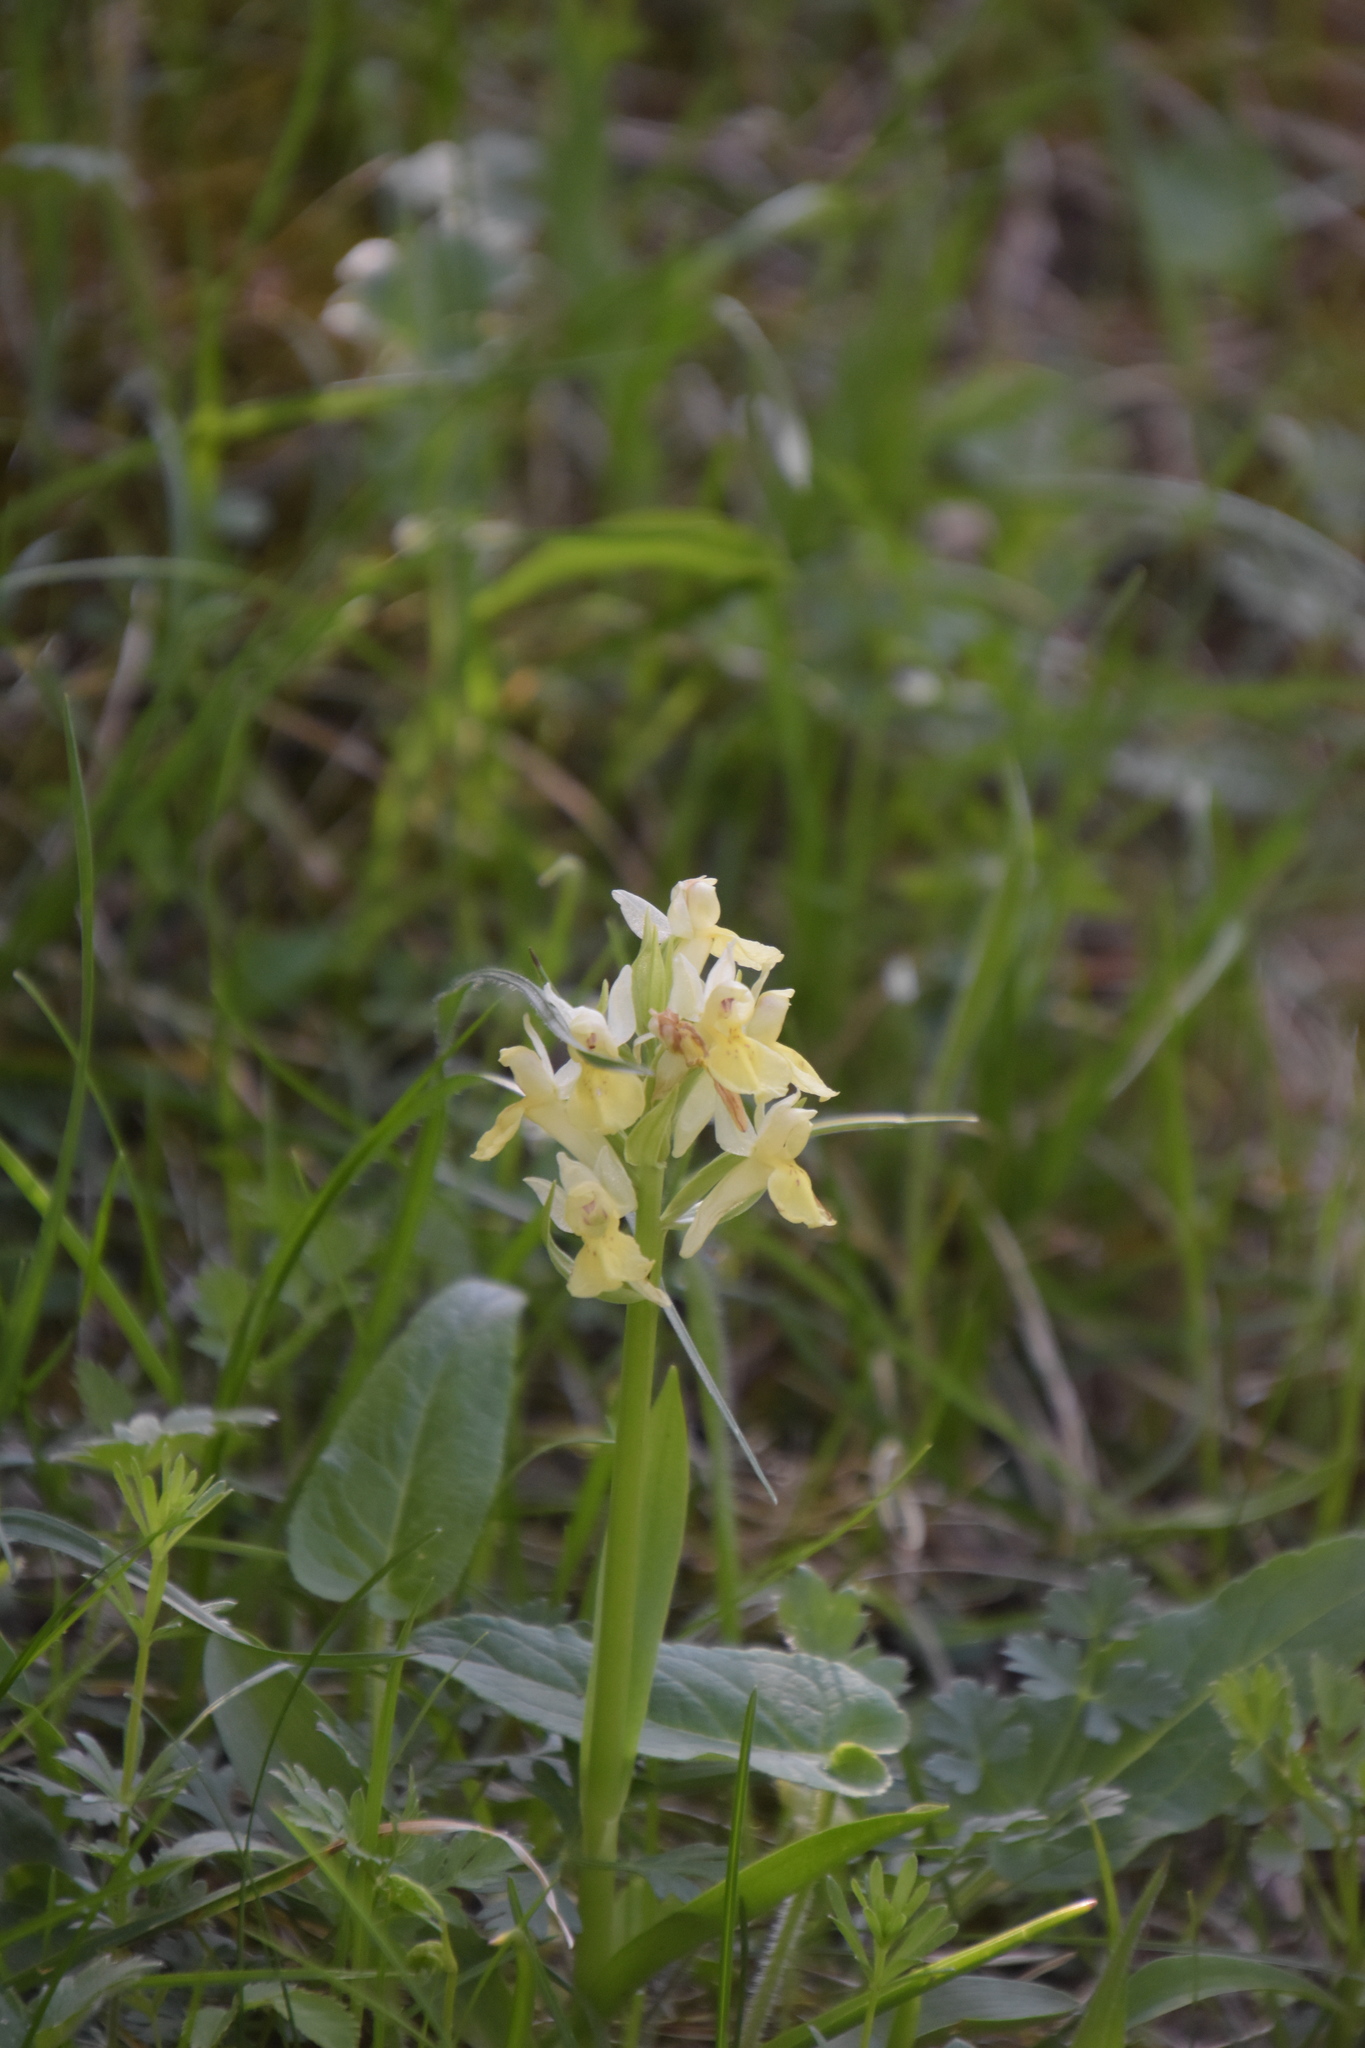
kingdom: Plantae
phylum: Tracheophyta
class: Liliopsida
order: Asparagales
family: Orchidaceae
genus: Dactylorhiza
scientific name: Dactylorhiza sambucina
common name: Elder-flowered orchid
